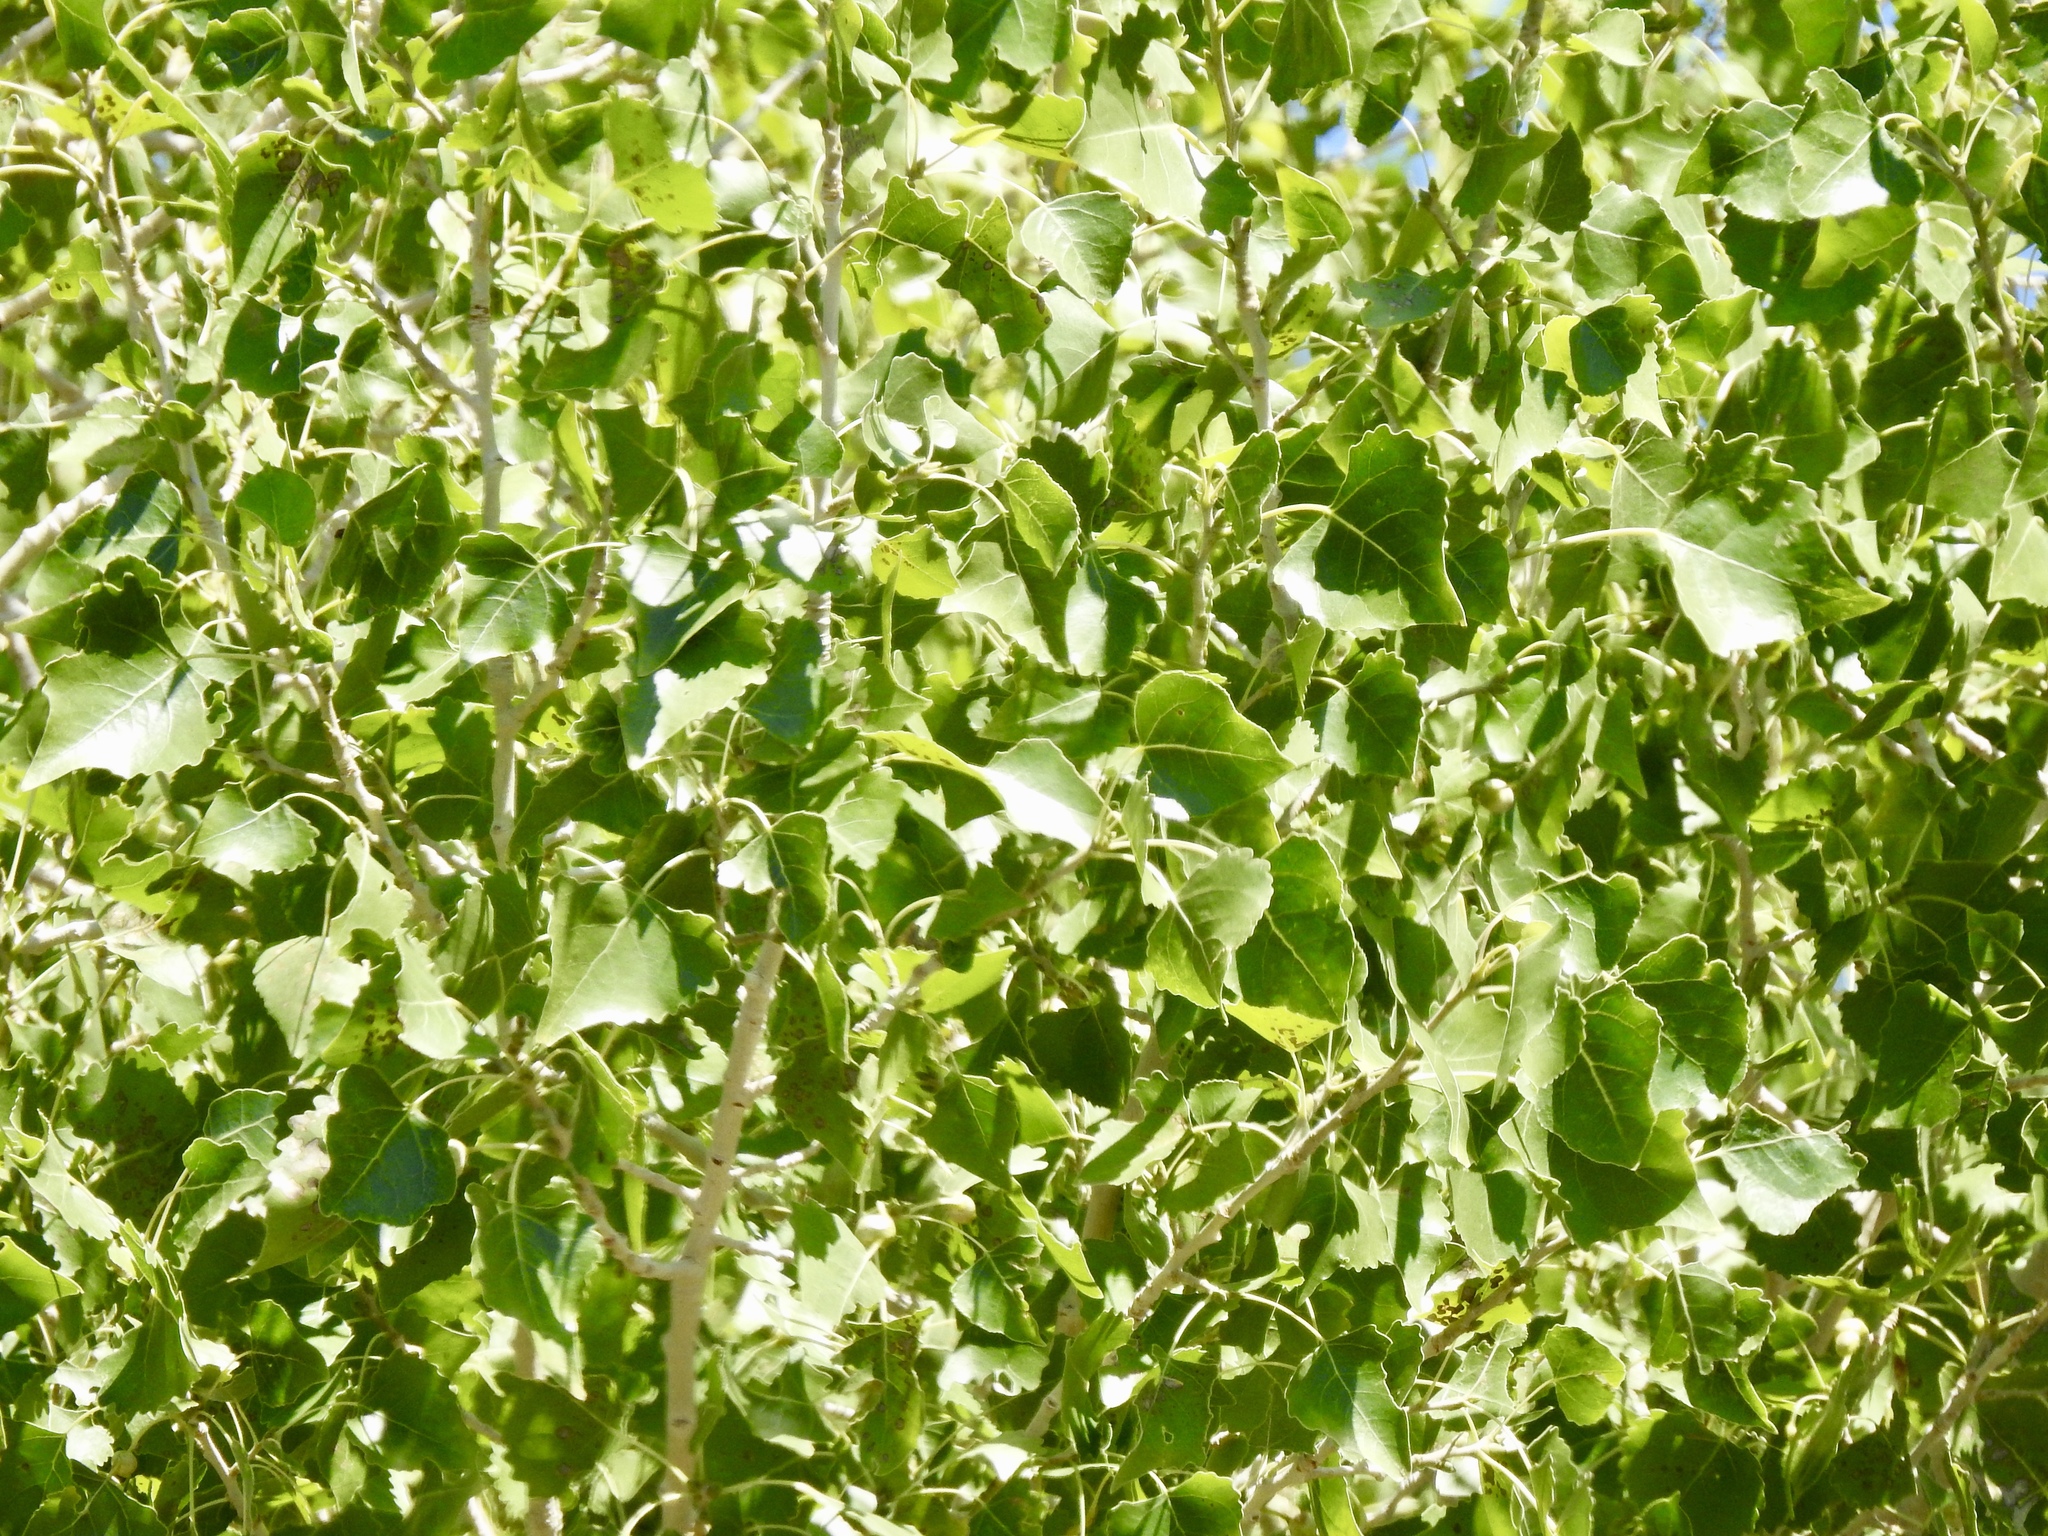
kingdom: Plantae
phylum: Tracheophyta
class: Magnoliopsida
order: Malpighiales
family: Salicaceae
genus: Populus
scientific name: Populus fremontii
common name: Fremont's cottonwood
